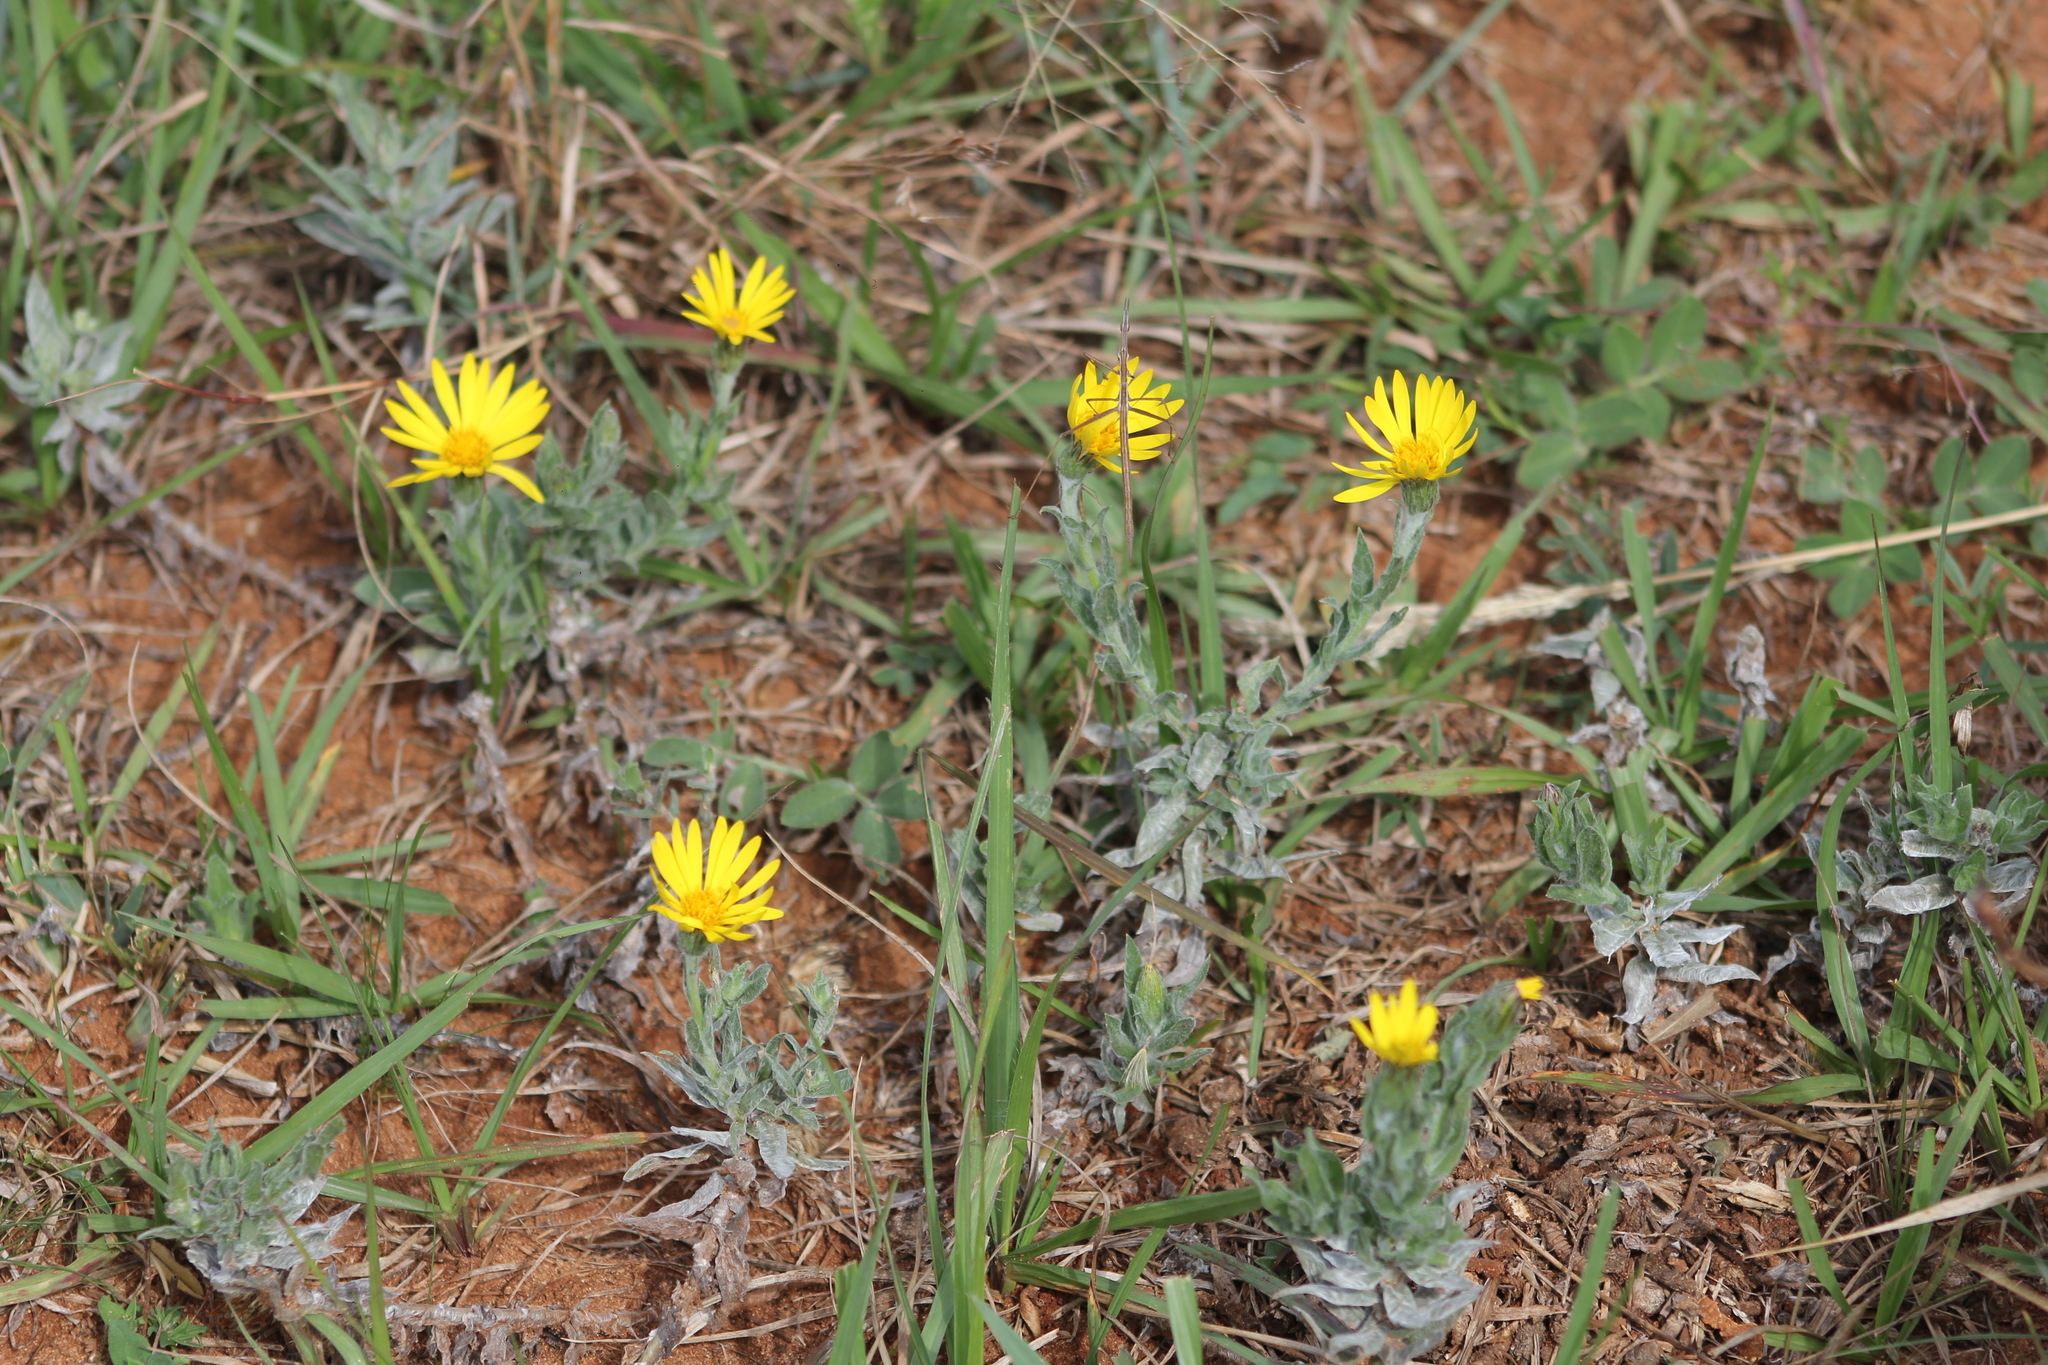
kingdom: Plantae
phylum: Tracheophyta
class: Magnoliopsida
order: Asterales
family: Asteraceae
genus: Noticastrum
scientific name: Noticastrum acuminatum
